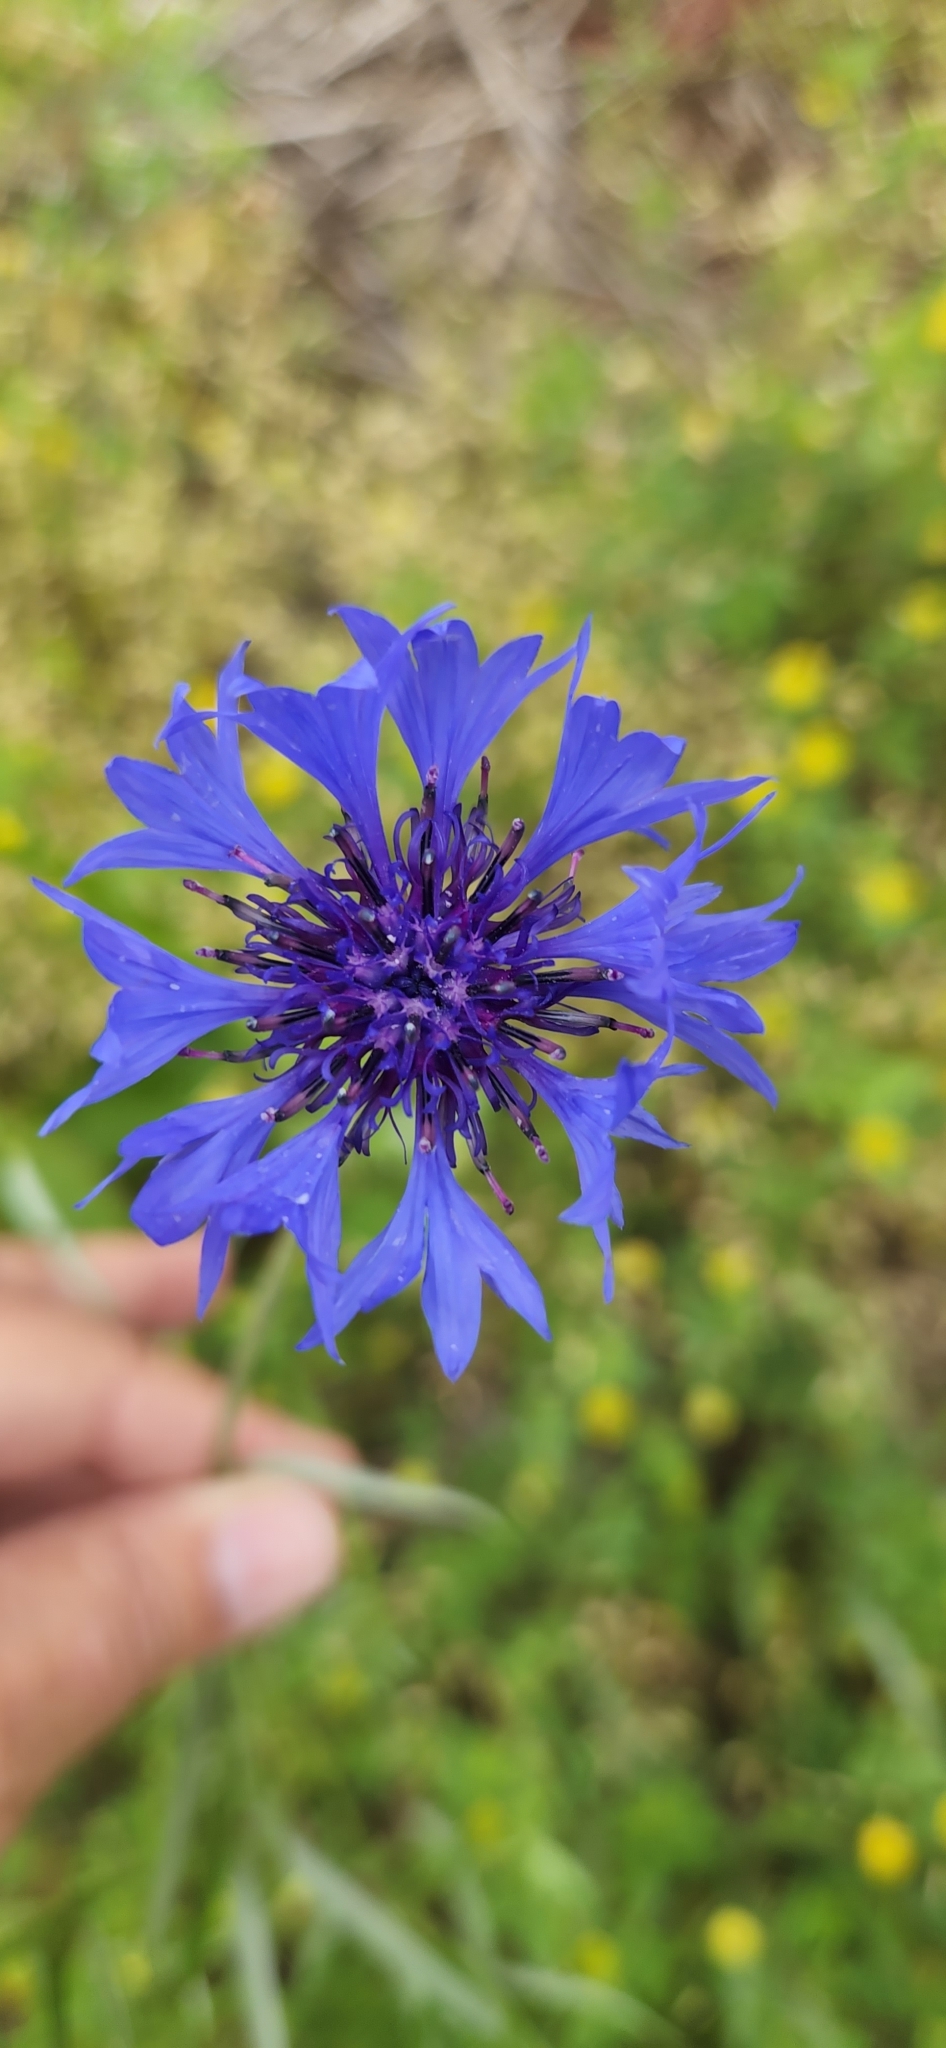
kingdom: Plantae
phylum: Tracheophyta
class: Magnoliopsida
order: Asterales
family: Asteraceae
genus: Centaurea
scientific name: Centaurea cyanus
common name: Cornflower
